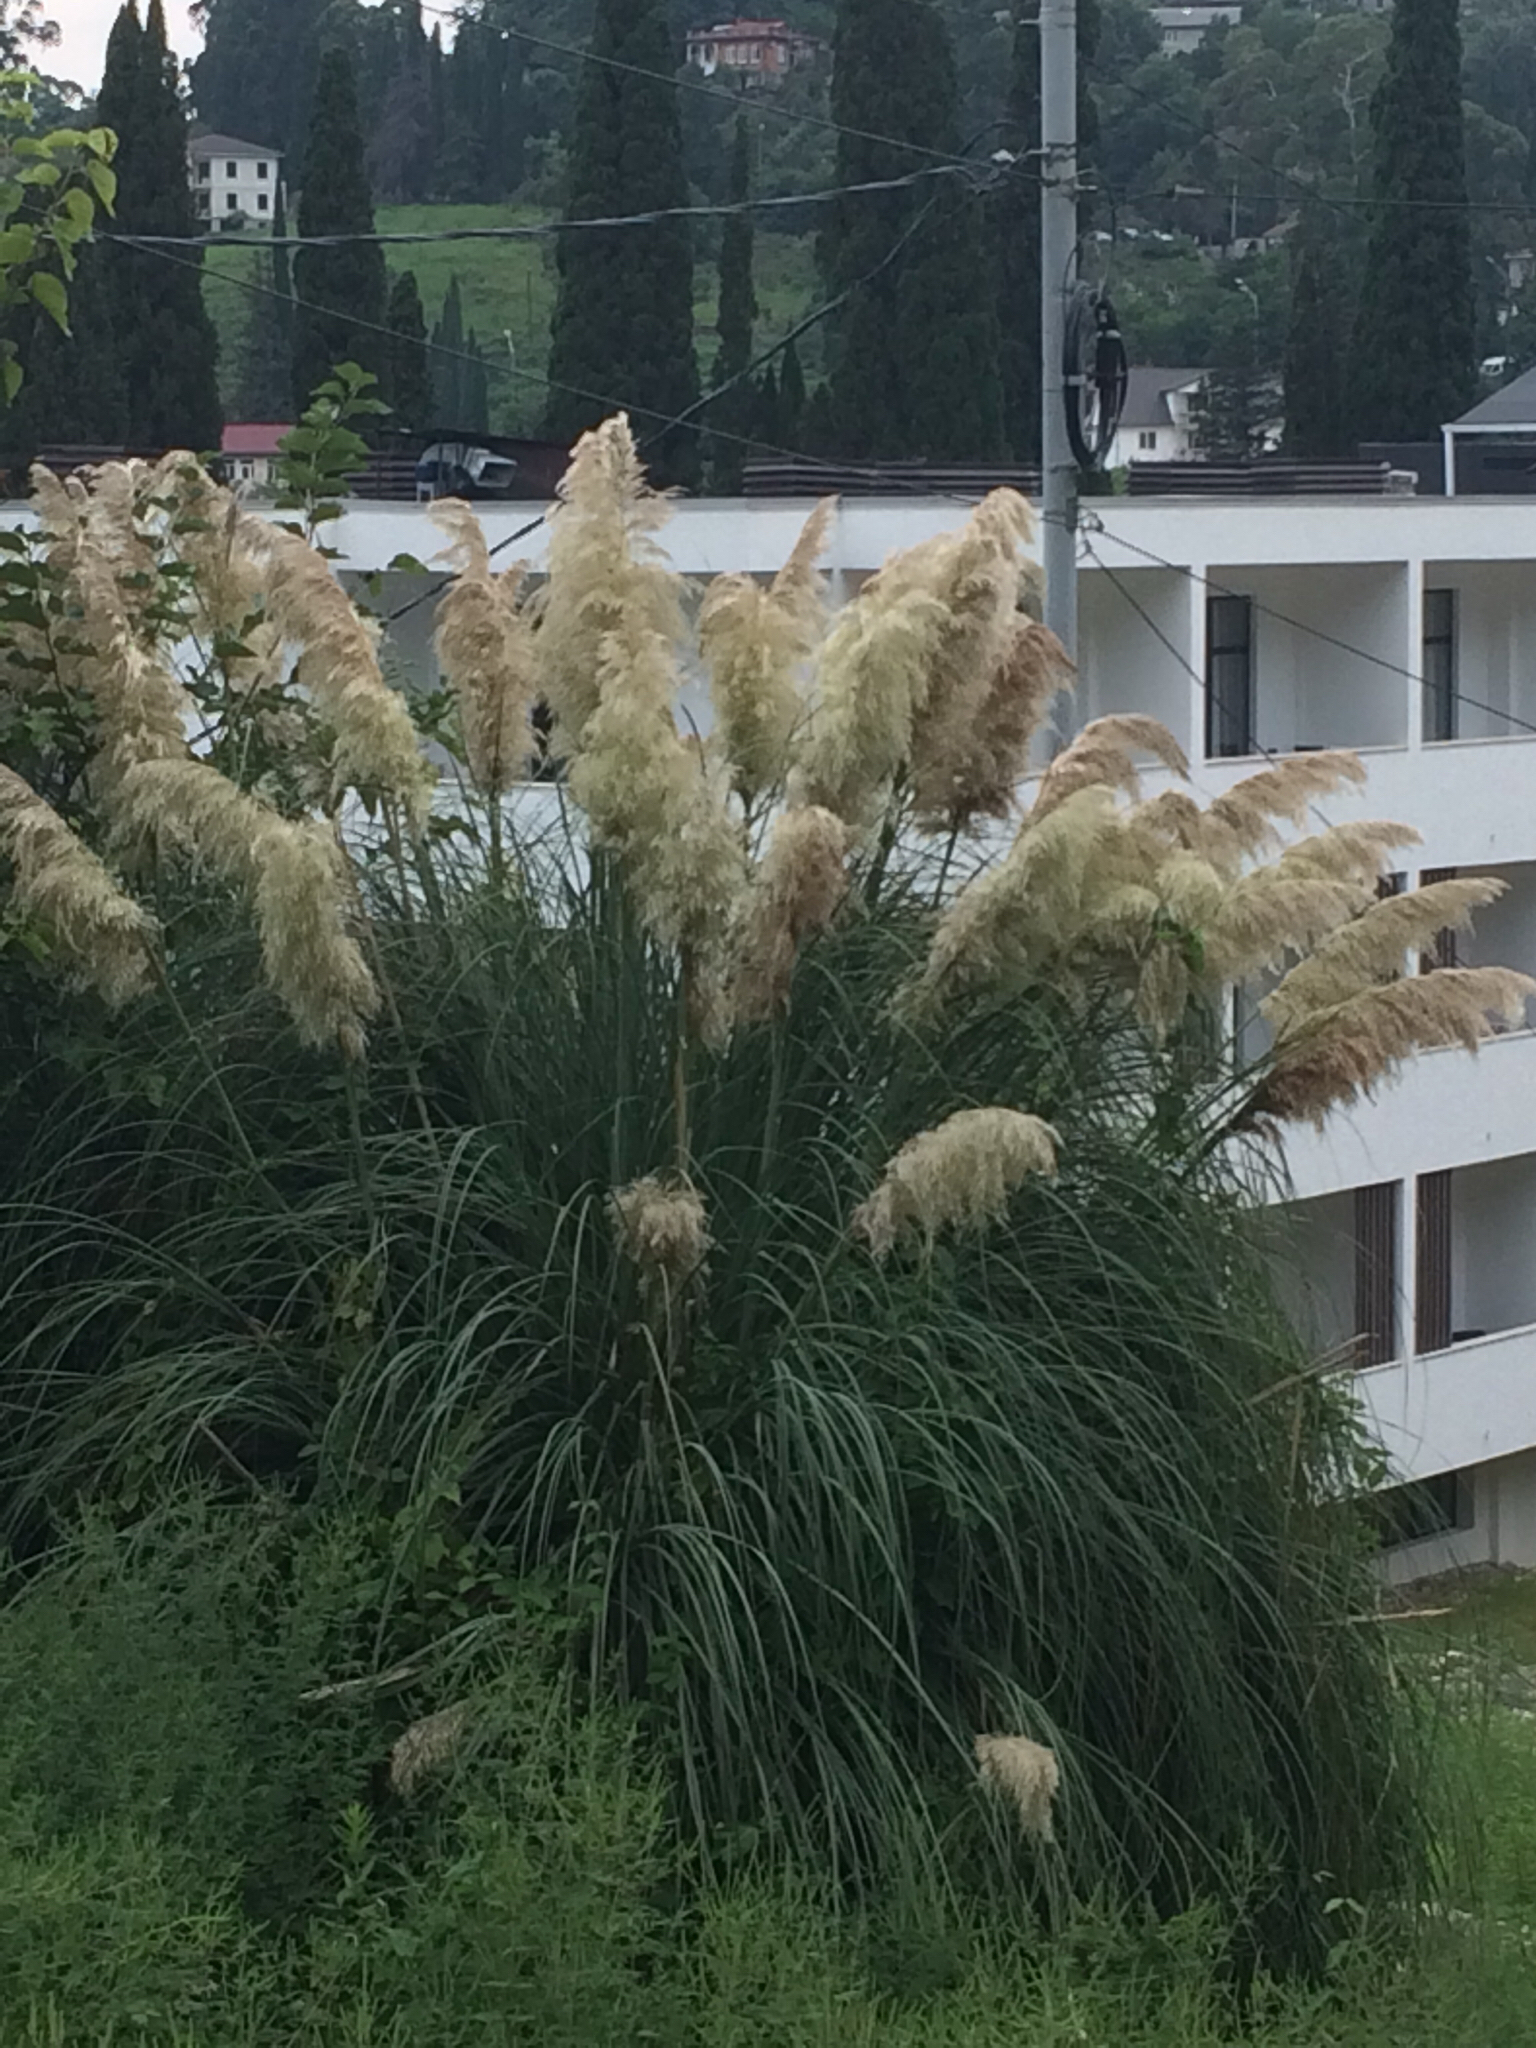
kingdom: Plantae
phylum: Tracheophyta
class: Liliopsida
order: Poales
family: Poaceae
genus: Cortaderia
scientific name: Cortaderia selloana
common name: Uruguayan pampas grass
